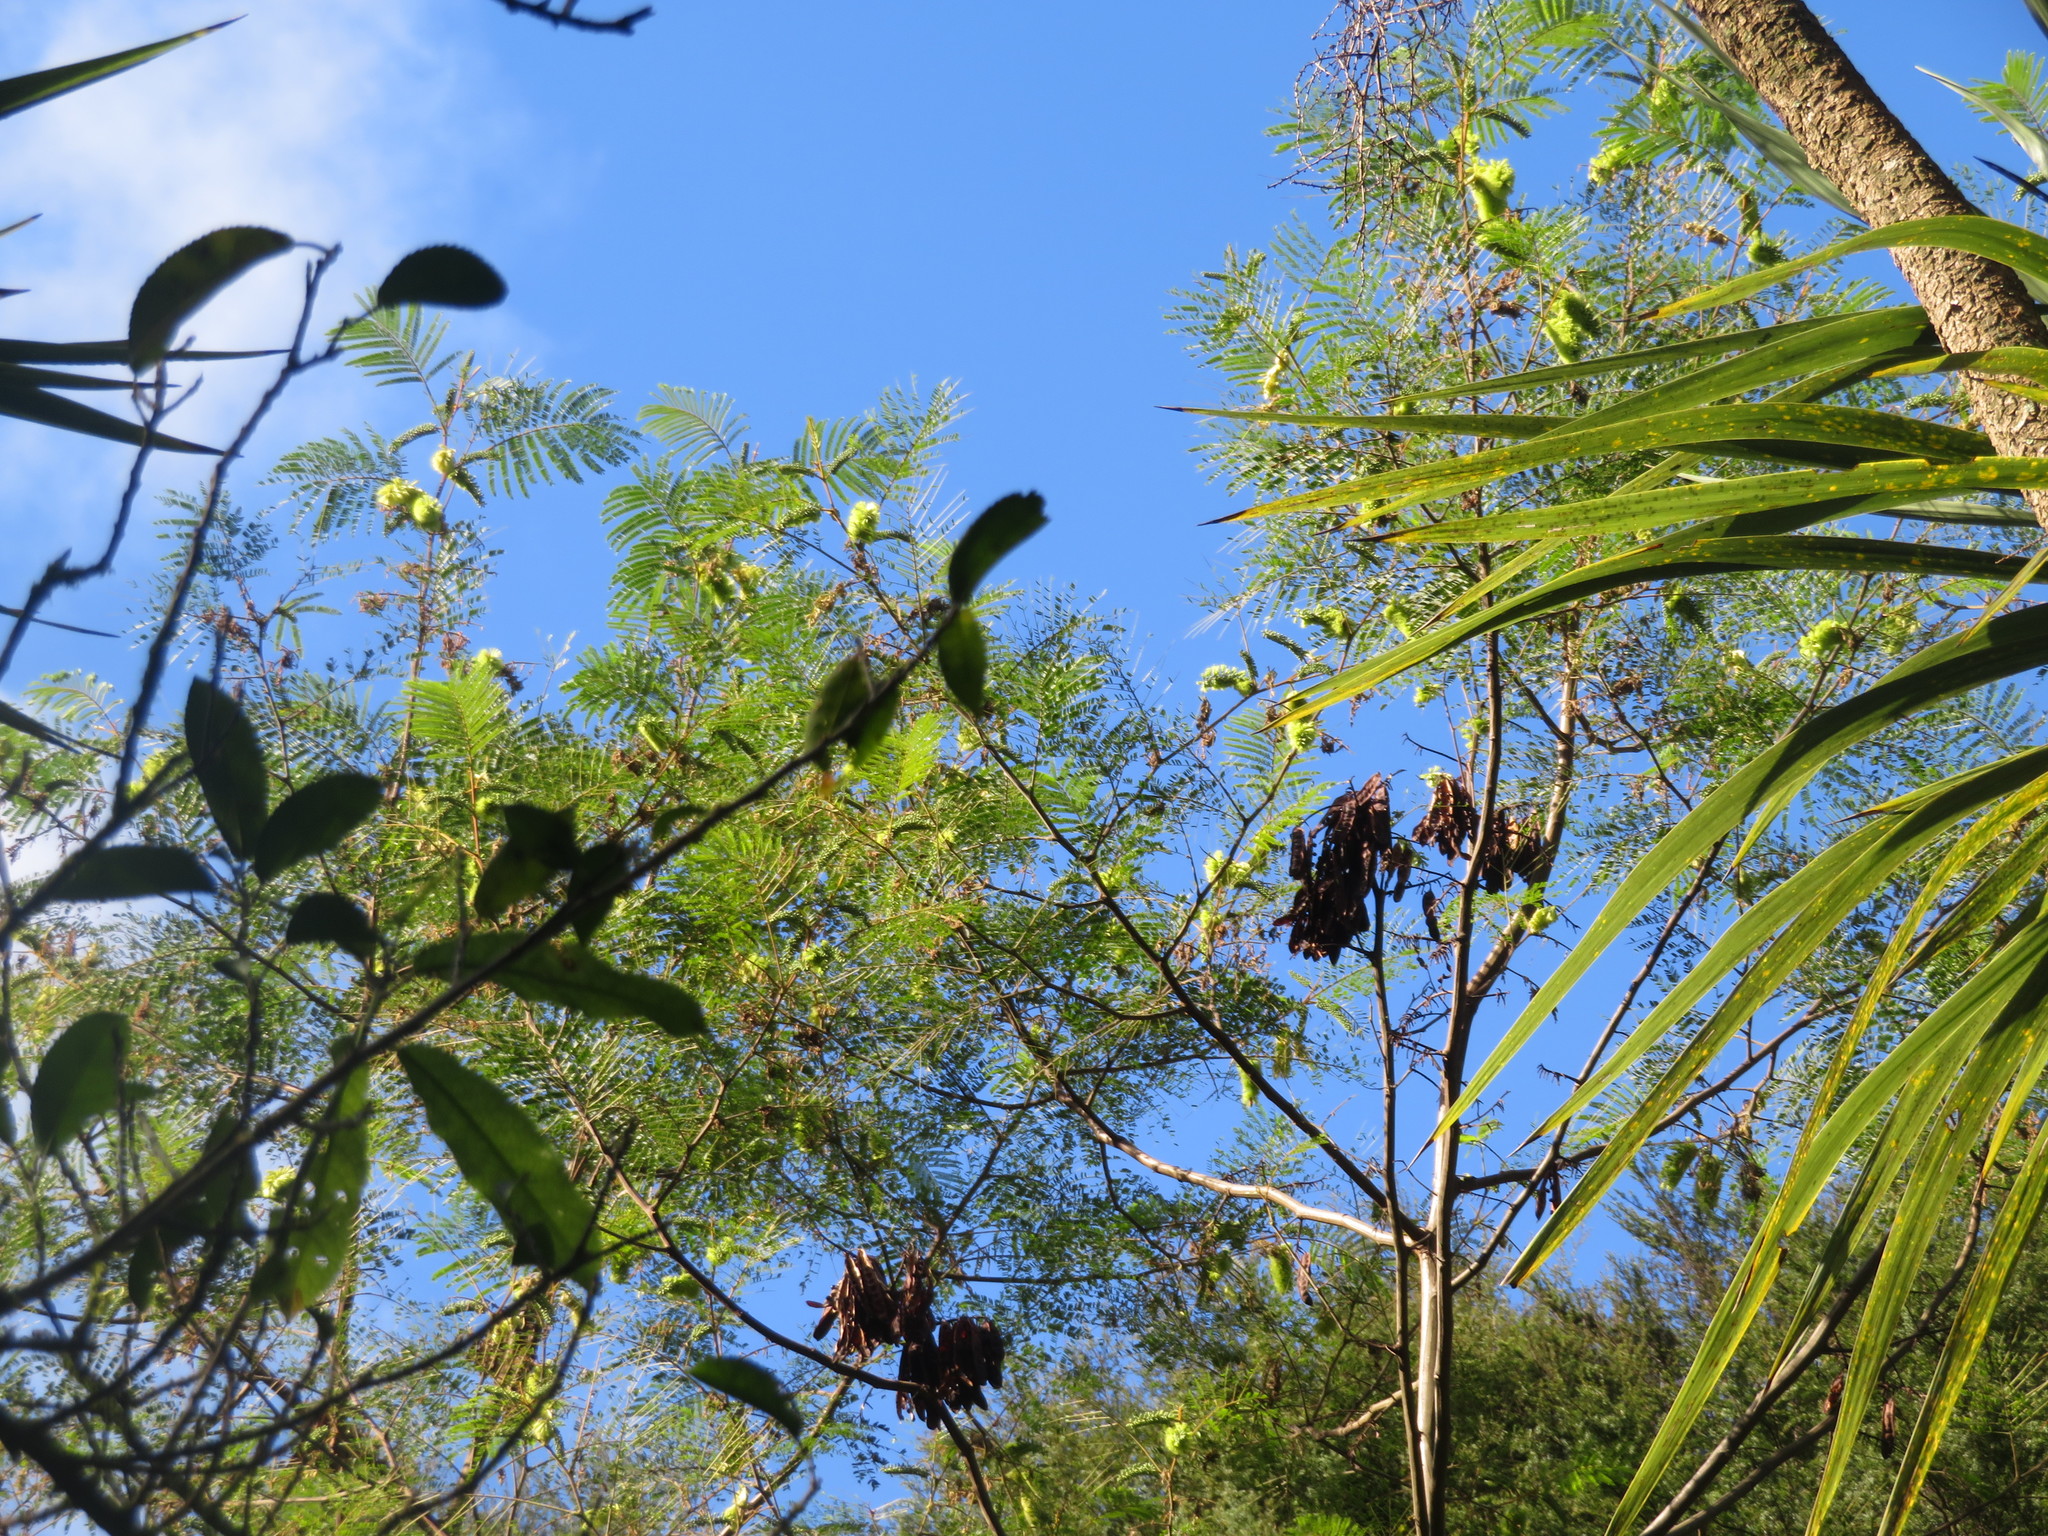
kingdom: Plantae
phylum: Tracheophyta
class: Magnoliopsida
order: Fabales
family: Fabaceae
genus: Paraserianthes
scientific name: Paraserianthes lophantha
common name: Plume albizia
